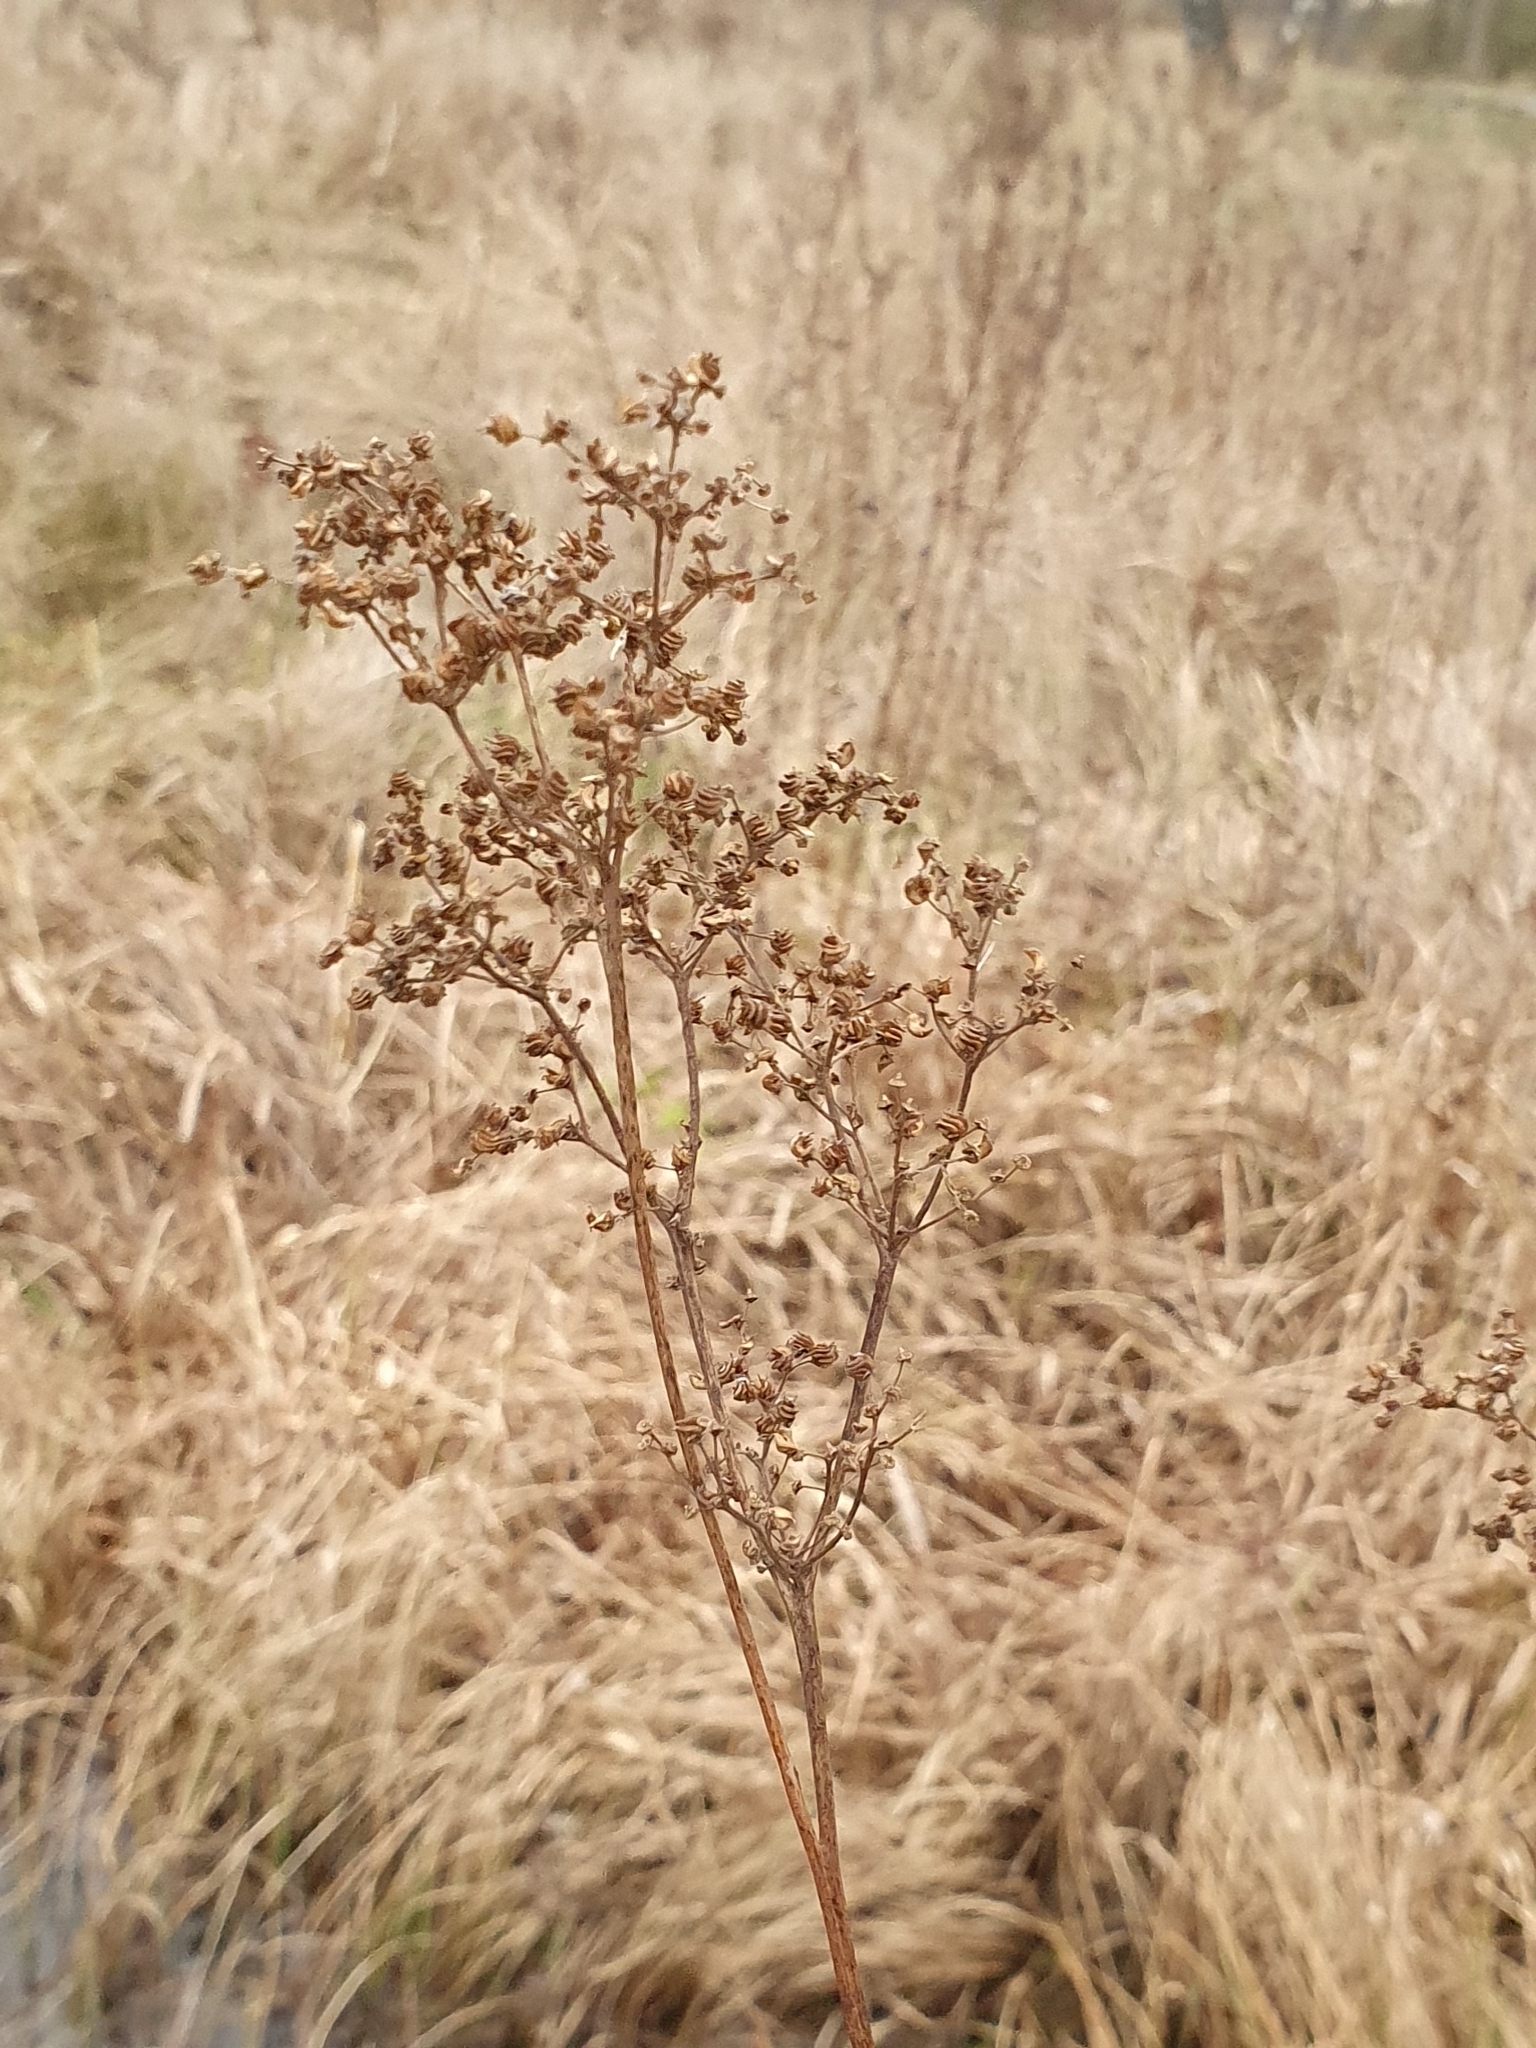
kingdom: Plantae
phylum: Tracheophyta
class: Magnoliopsida
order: Rosales
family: Rosaceae
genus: Filipendula
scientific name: Filipendula ulmaria
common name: Meadowsweet
